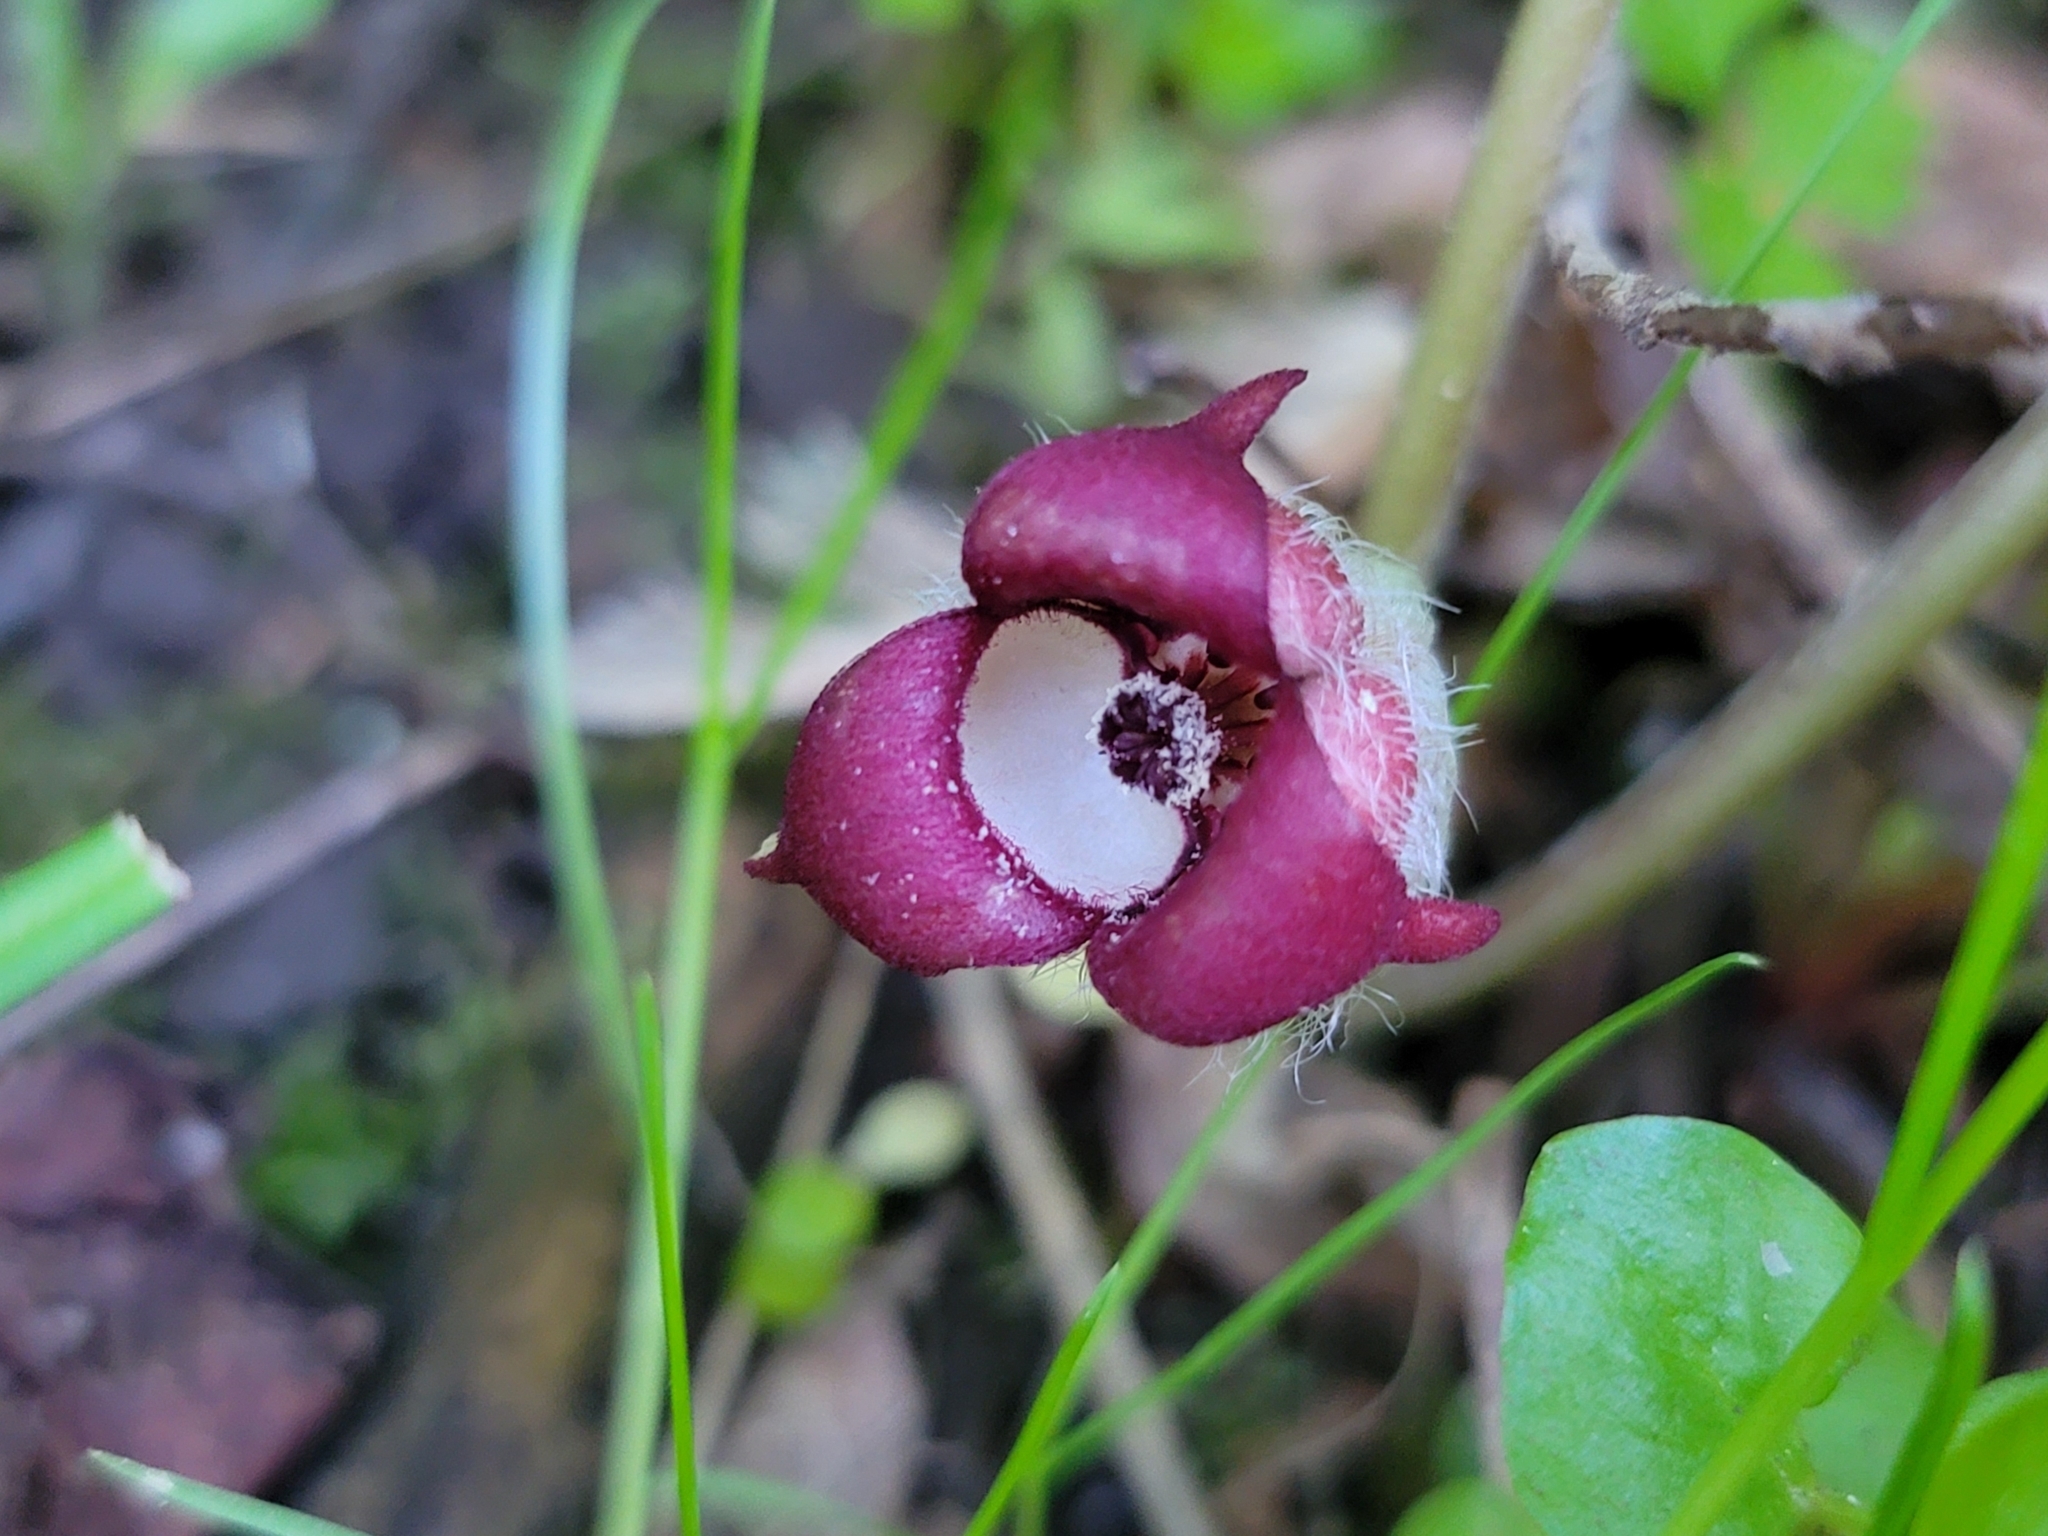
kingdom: Plantae
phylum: Tracheophyta
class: Magnoliopsida
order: Piperales
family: Aristolochiaceae
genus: Asarum
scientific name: Asarum canadense
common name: Wild ginger
